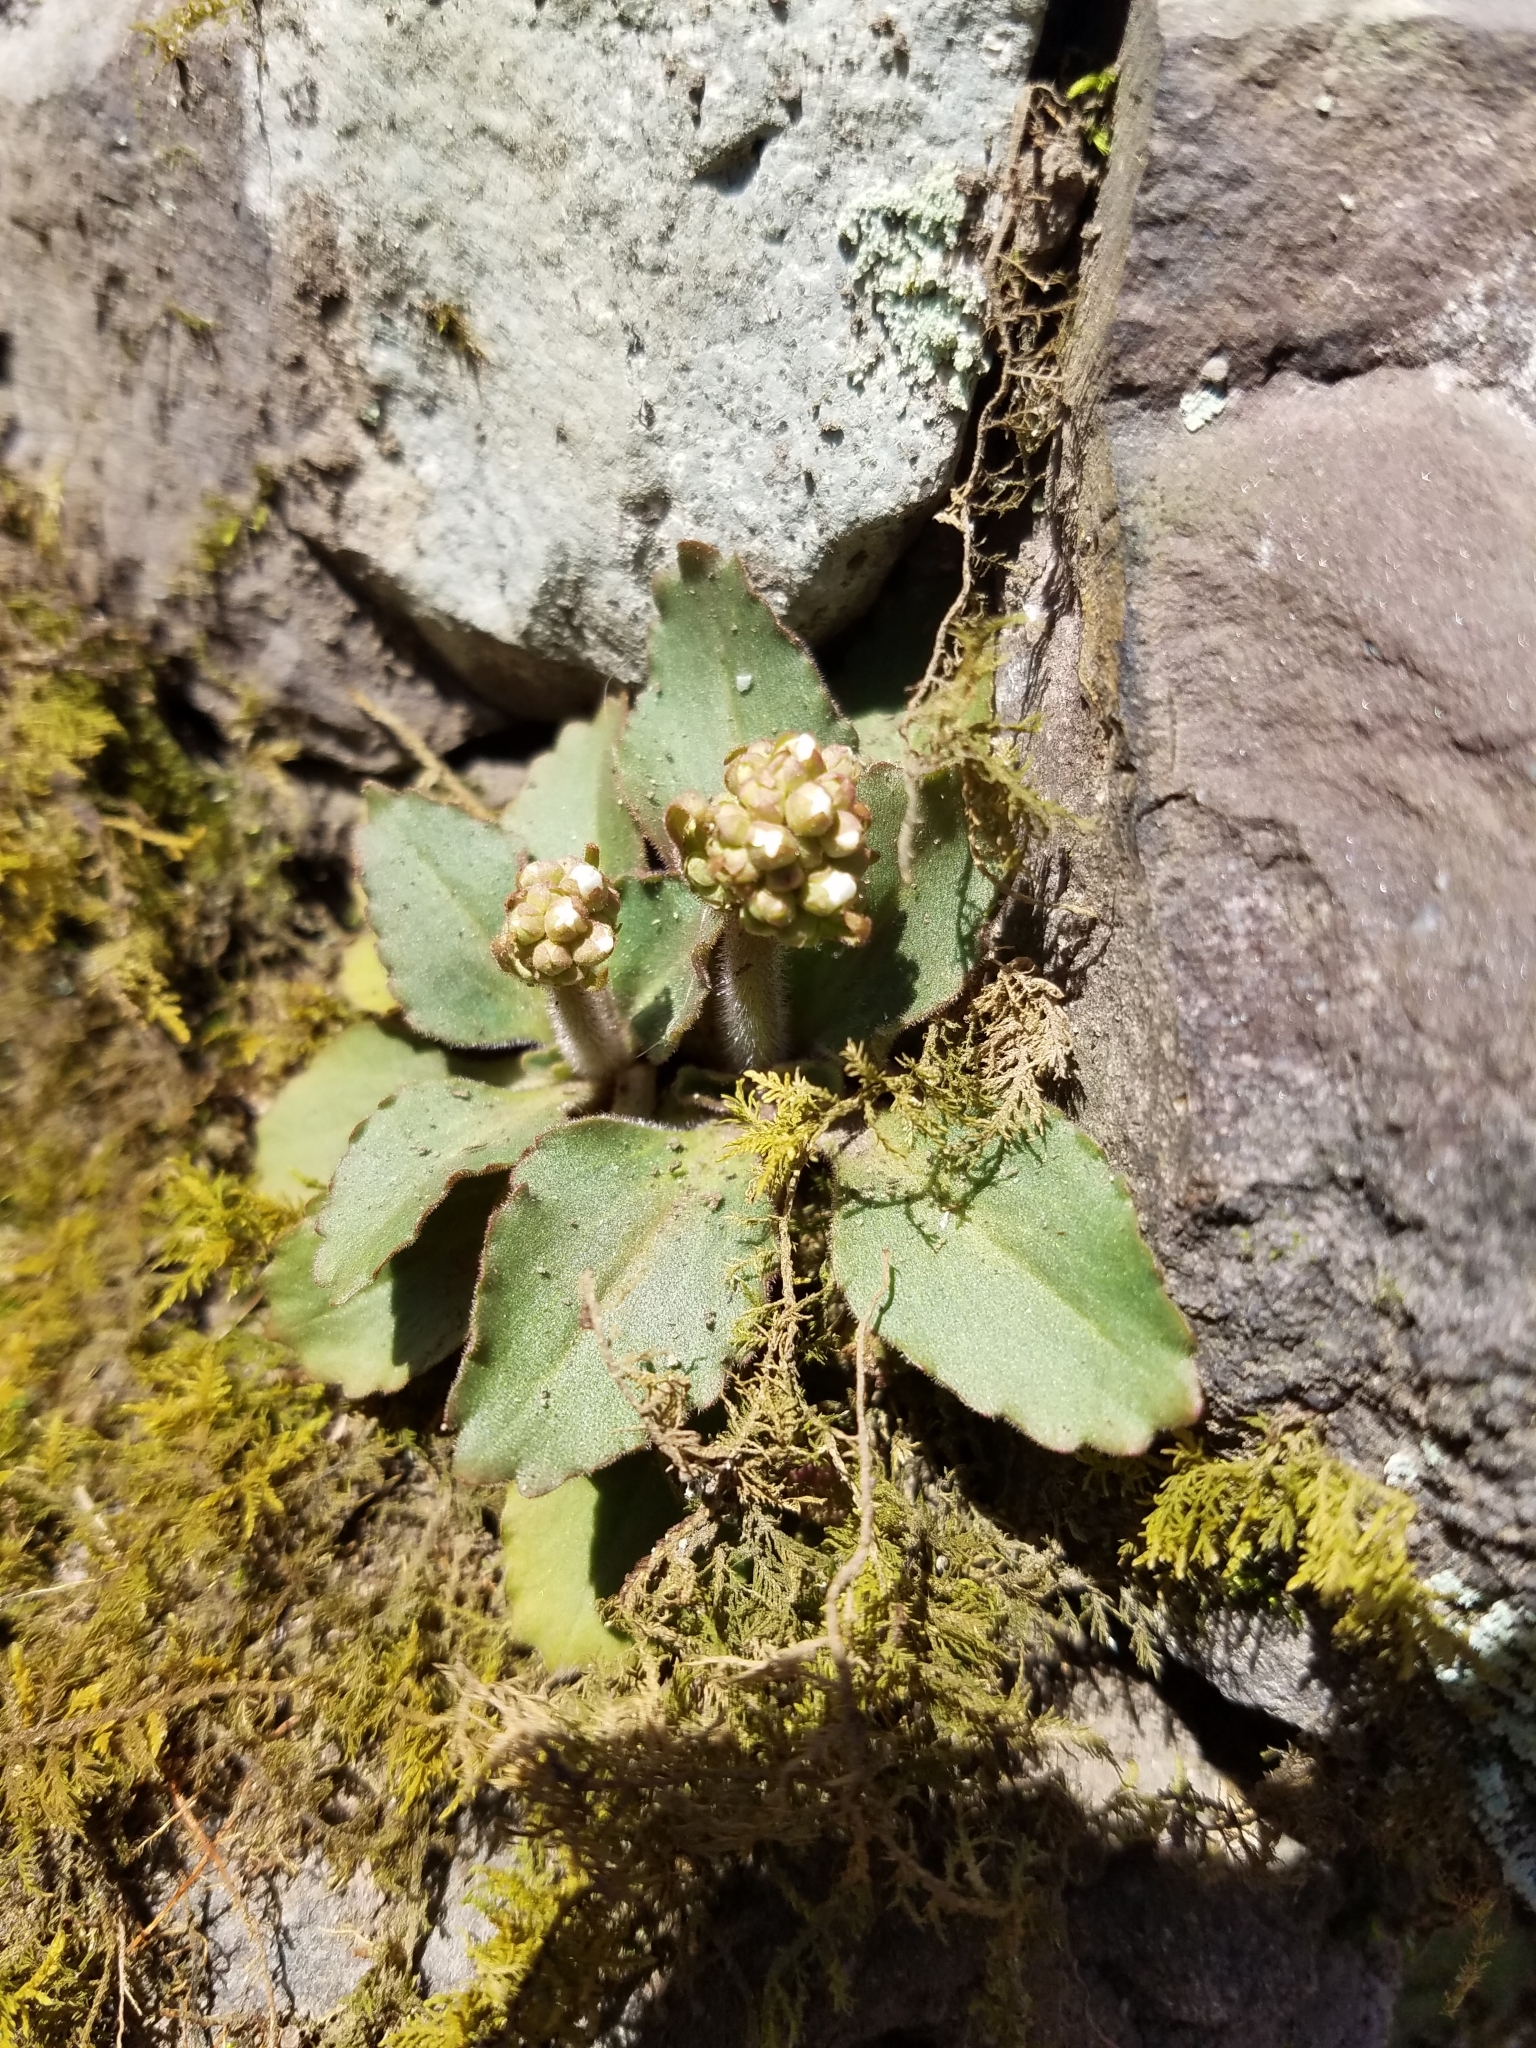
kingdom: Plantae
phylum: Tracheophyta
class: Magnoliopsida
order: Saxifragales
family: Saxifragaceae
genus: Micranthes
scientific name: Micranthes virginiensis
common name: Early saxifrage
